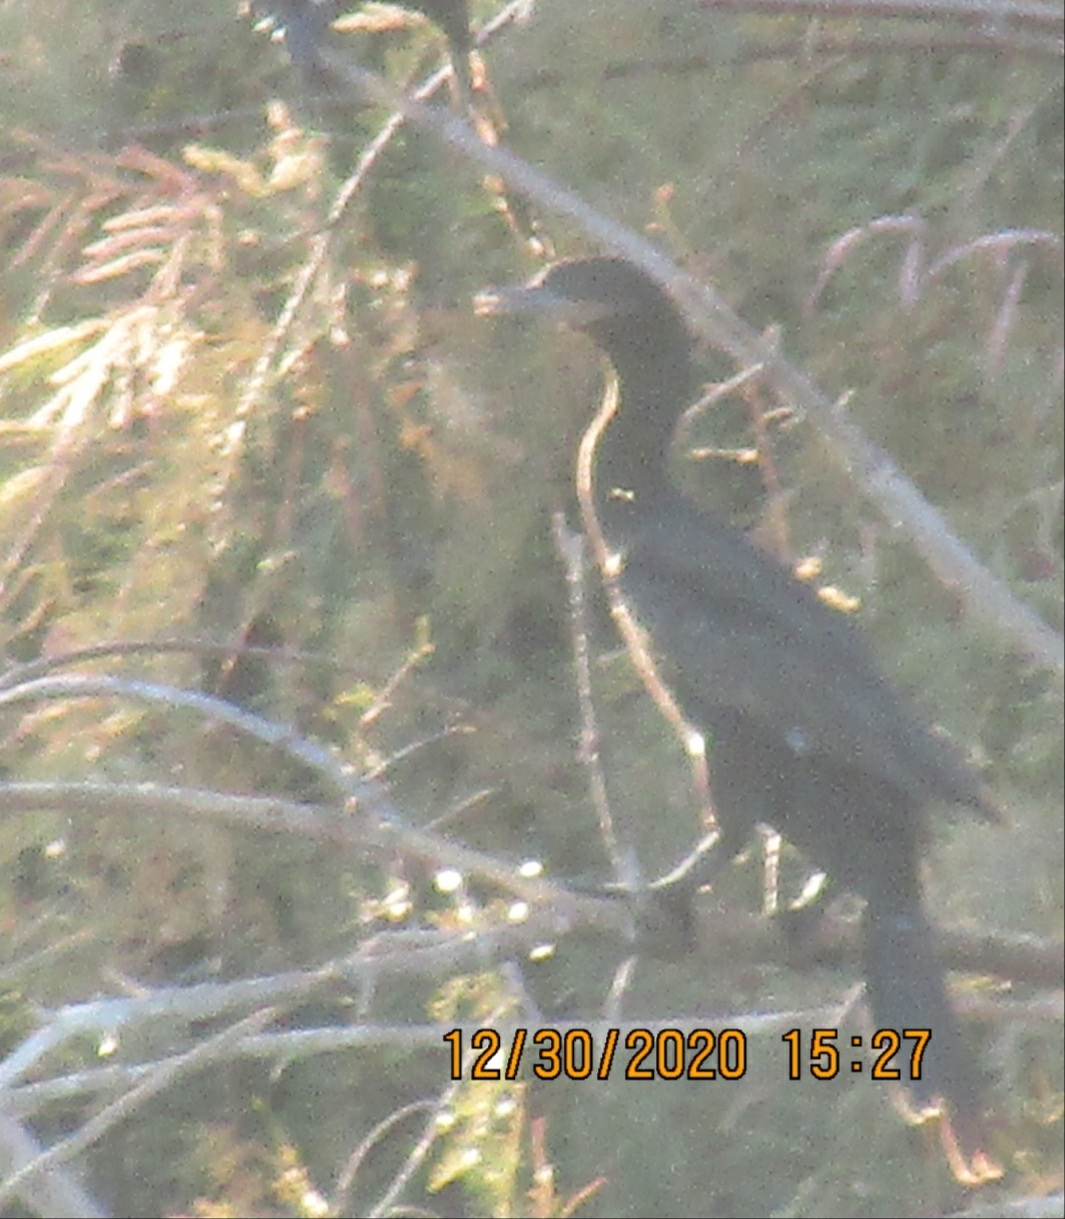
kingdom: Animalia
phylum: Chordata
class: Aves
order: Suliformes
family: Phalacrocoracidae
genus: Phalacrocorax
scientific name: Phalacrocorax brasilianus
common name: Neotropic cormorant
